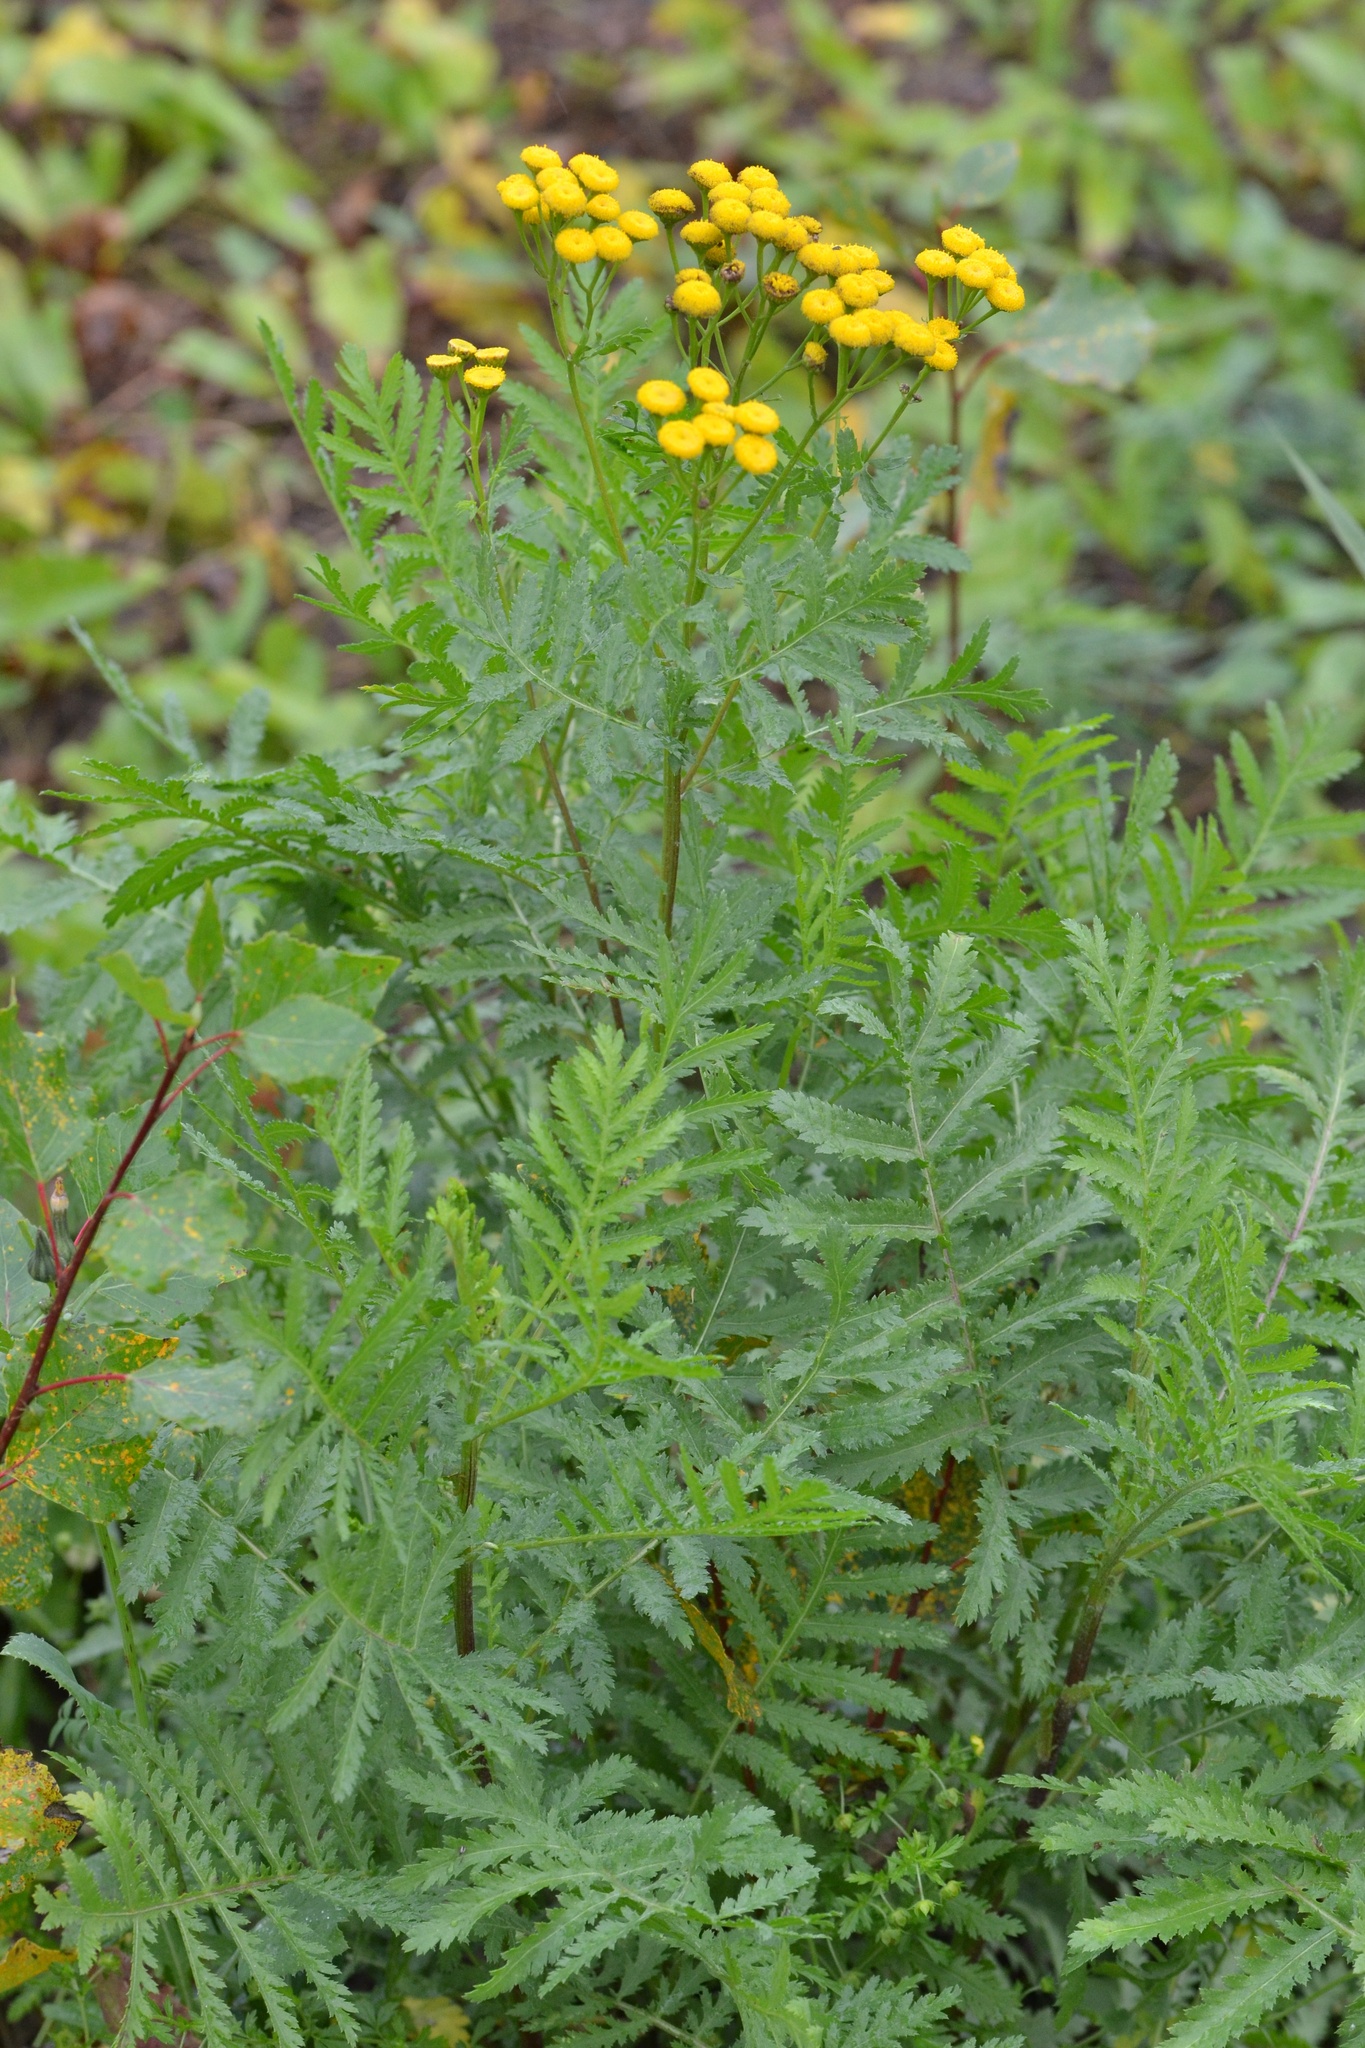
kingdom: Plantae
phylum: Tracheophyta
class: Magnoliopsida
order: Asterales
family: Asteraceae
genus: Tanacetum
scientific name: Tanacetum vulgare
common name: Common tansy
